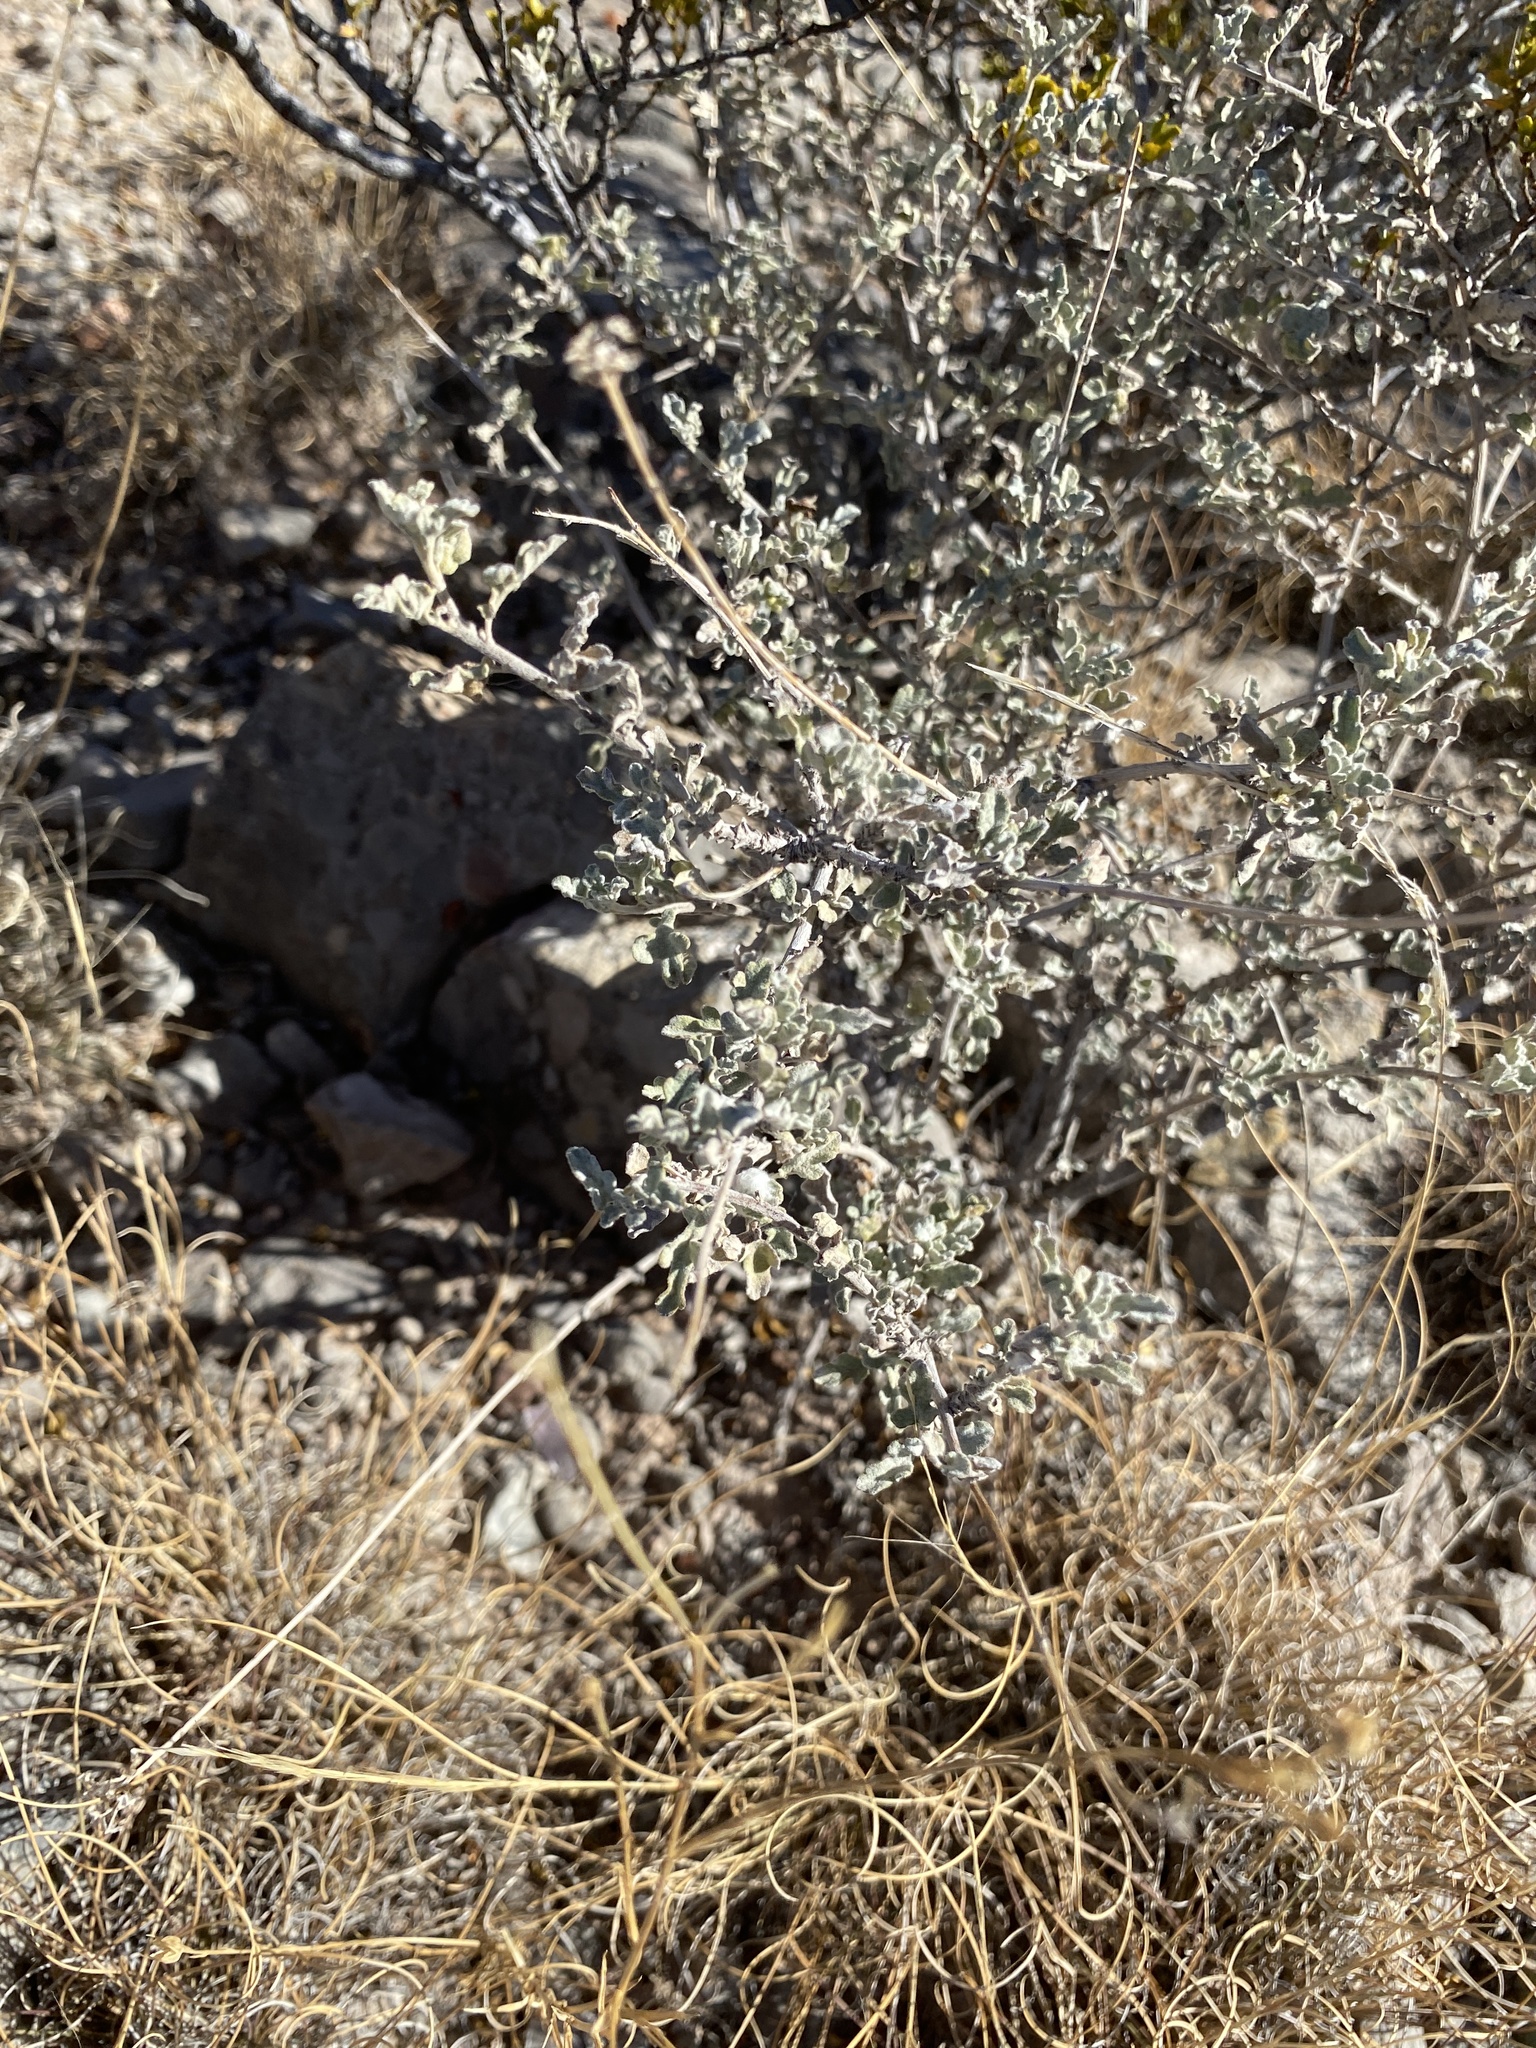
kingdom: Plantae
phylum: Tracheophyta
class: Magnoliopsida
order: Asterales
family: Asteraceae
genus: Parthenium
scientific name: Parthenium incanum
